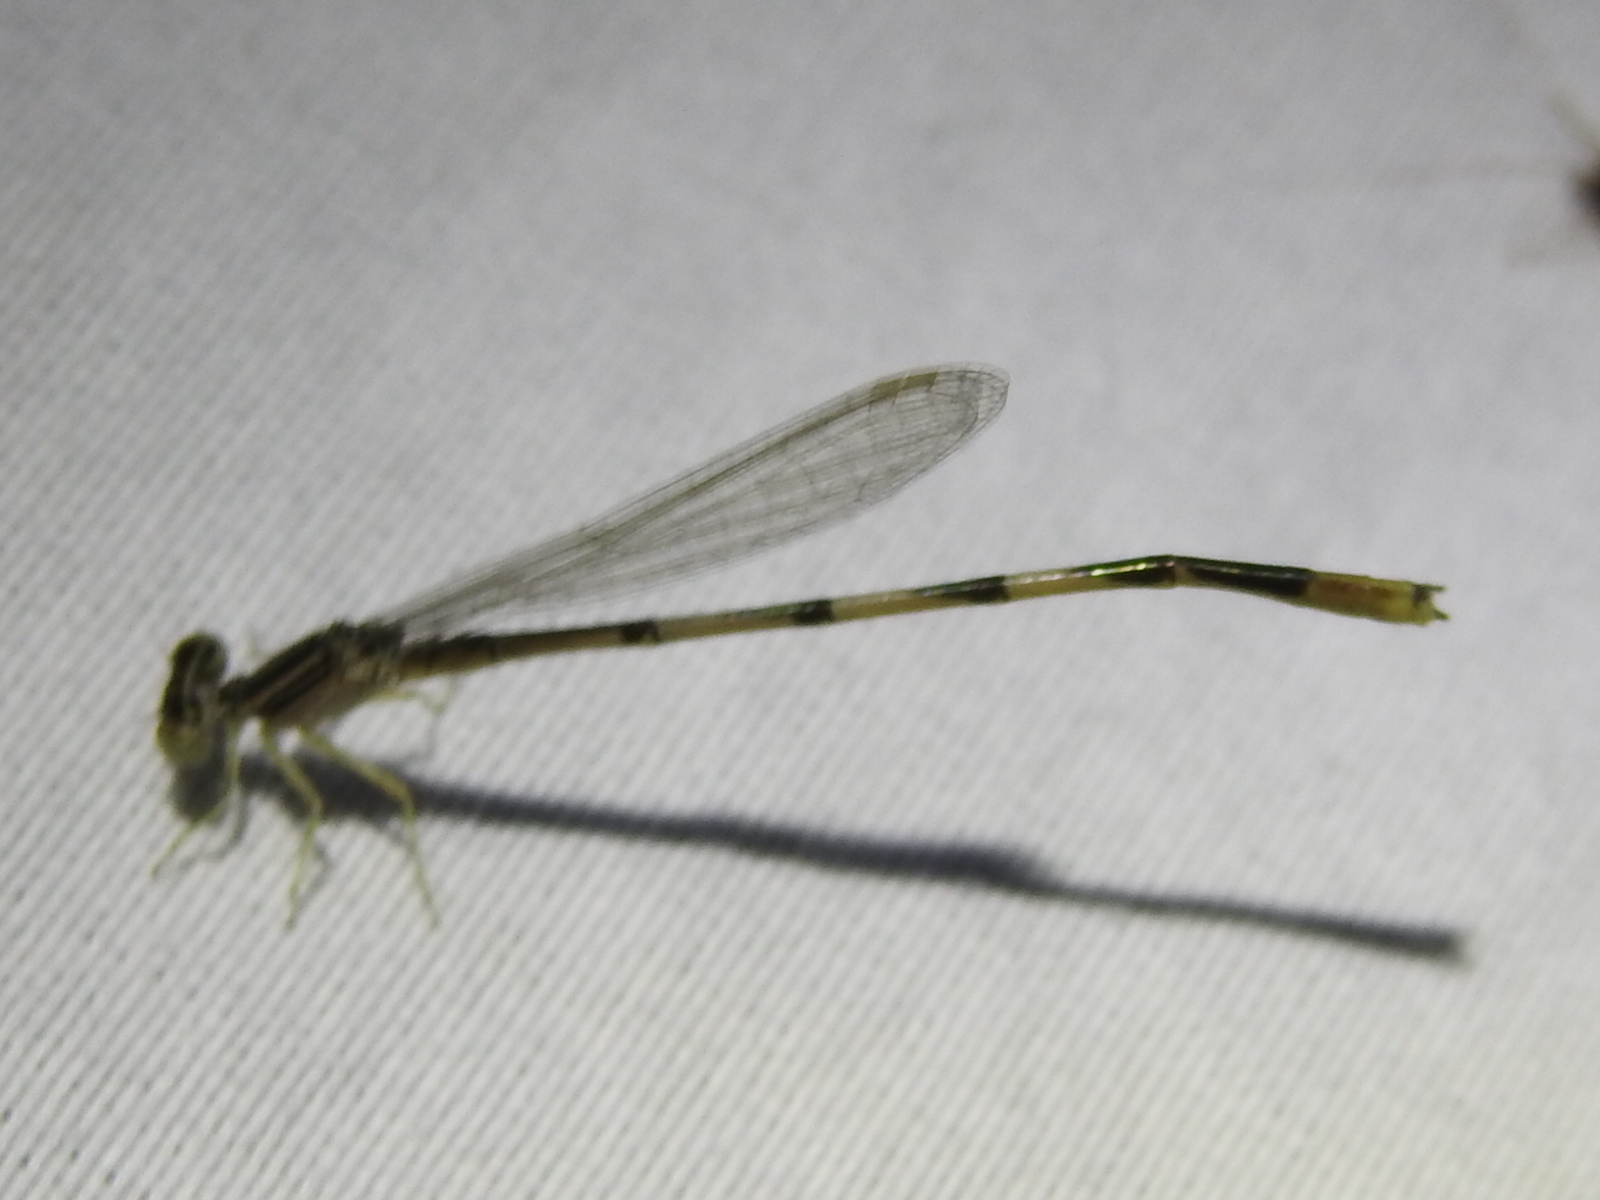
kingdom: Animalia
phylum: Arthropoda
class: Insecta
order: Odonata
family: Coenagrionidae
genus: Enallagma
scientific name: Enallagma basidens
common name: Double-striped bluet
